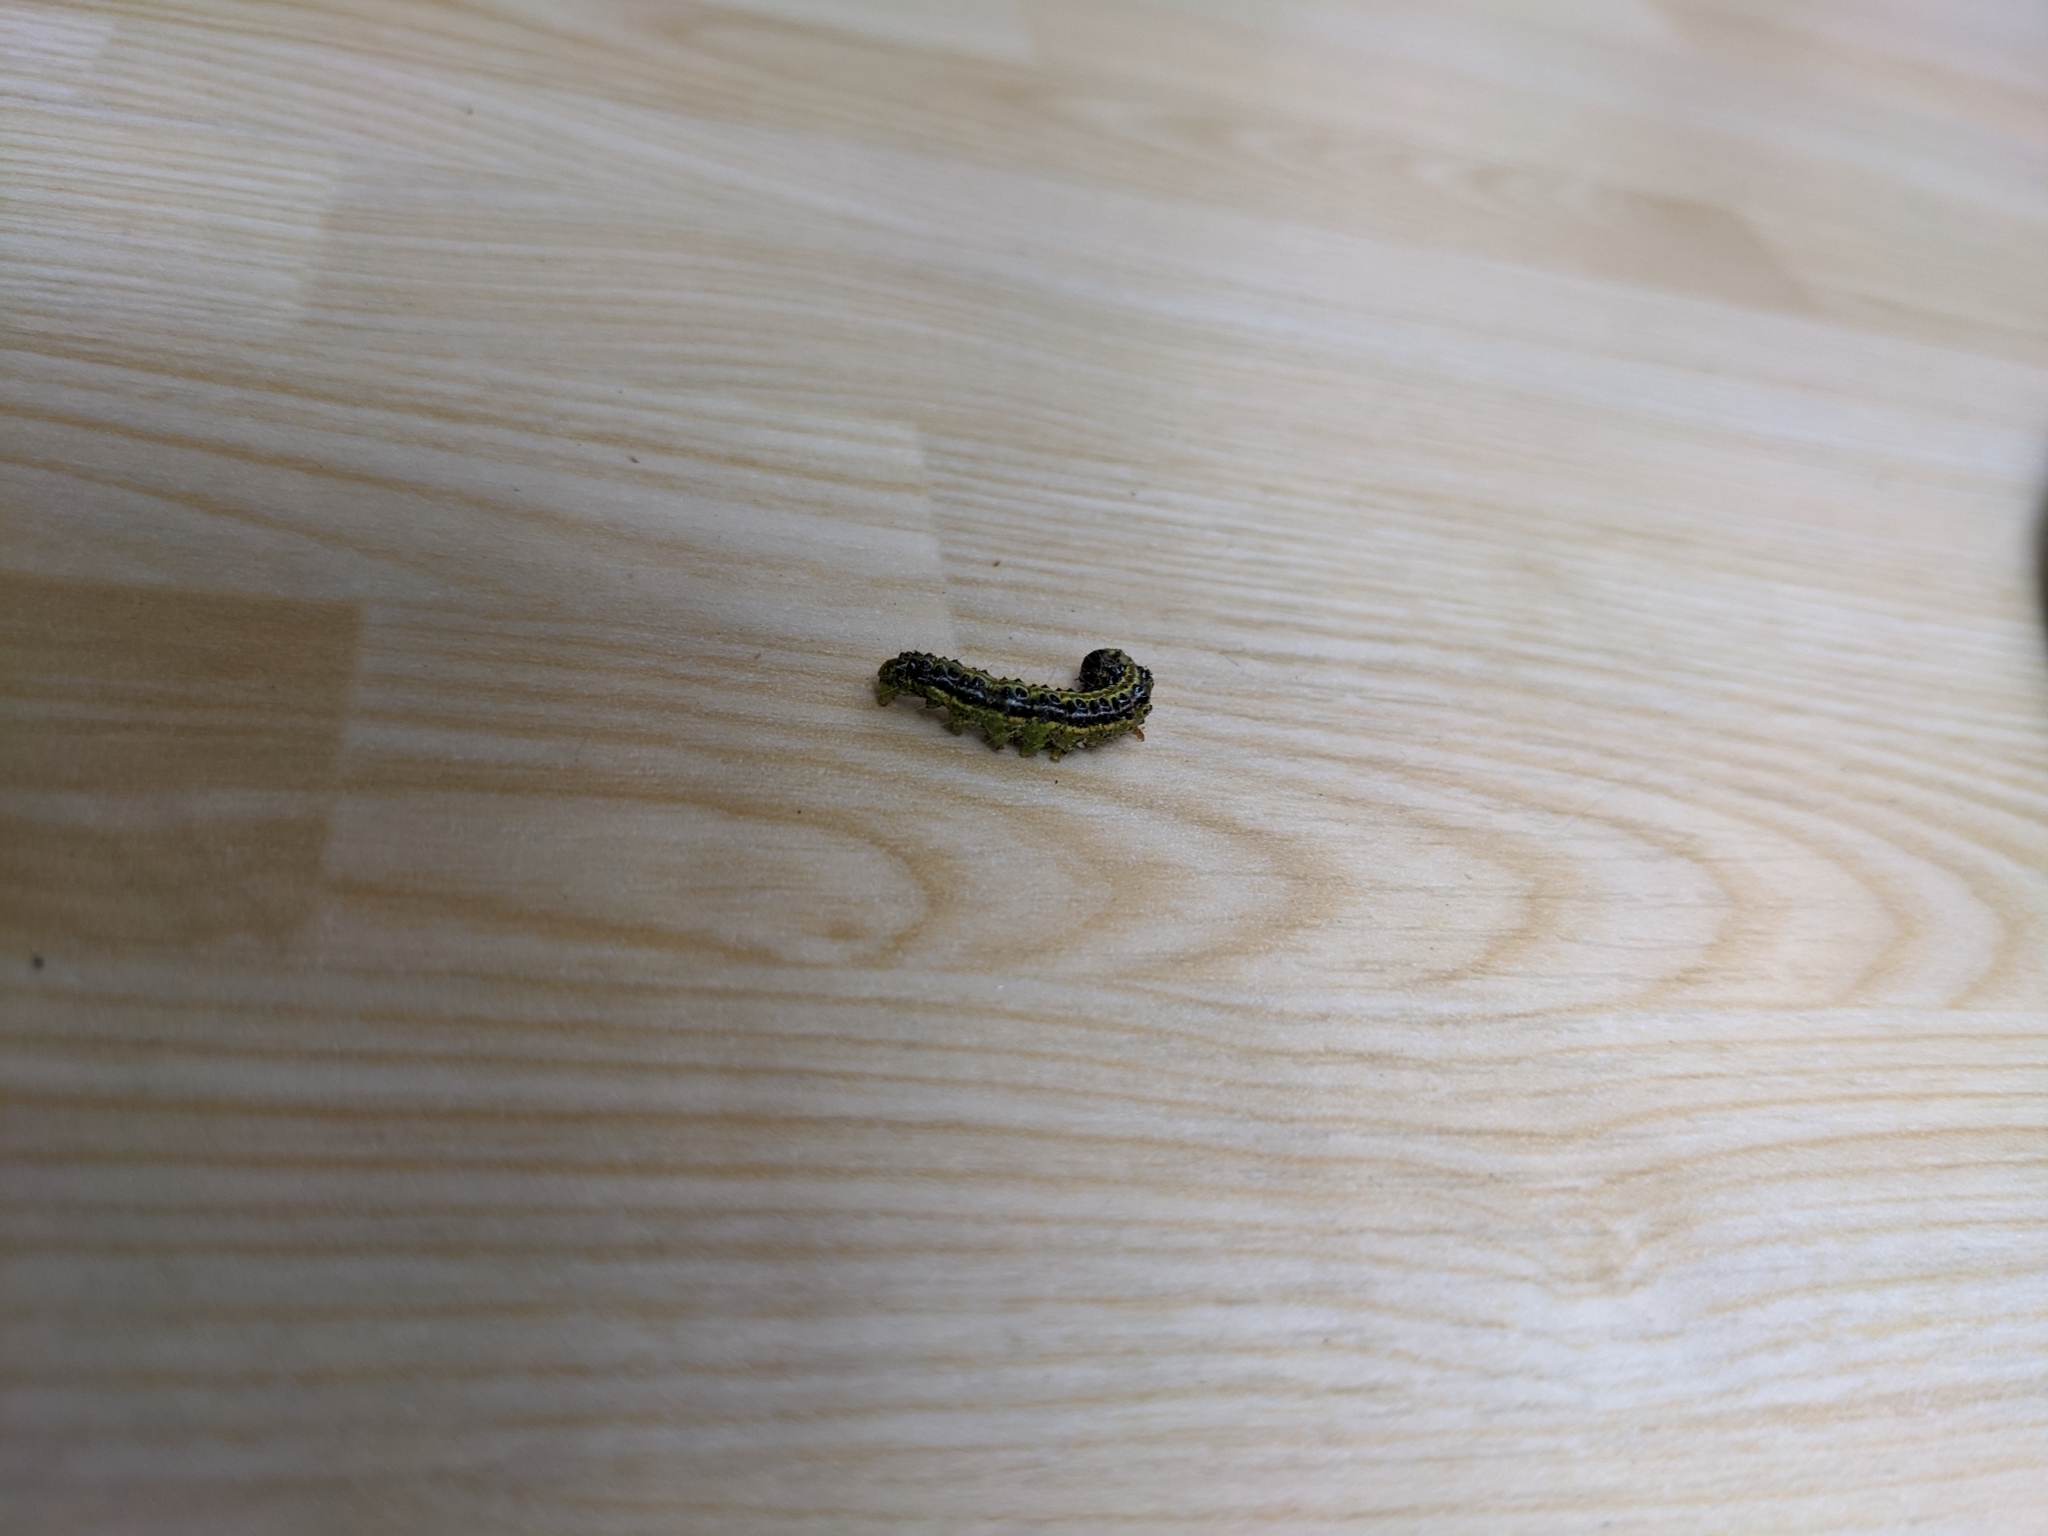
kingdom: Animalia
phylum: Arthropoda
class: Insecta
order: Lepidoptera
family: Crambidae
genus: Cydalima
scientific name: Cydalima perspectalis
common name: Box tree moth
